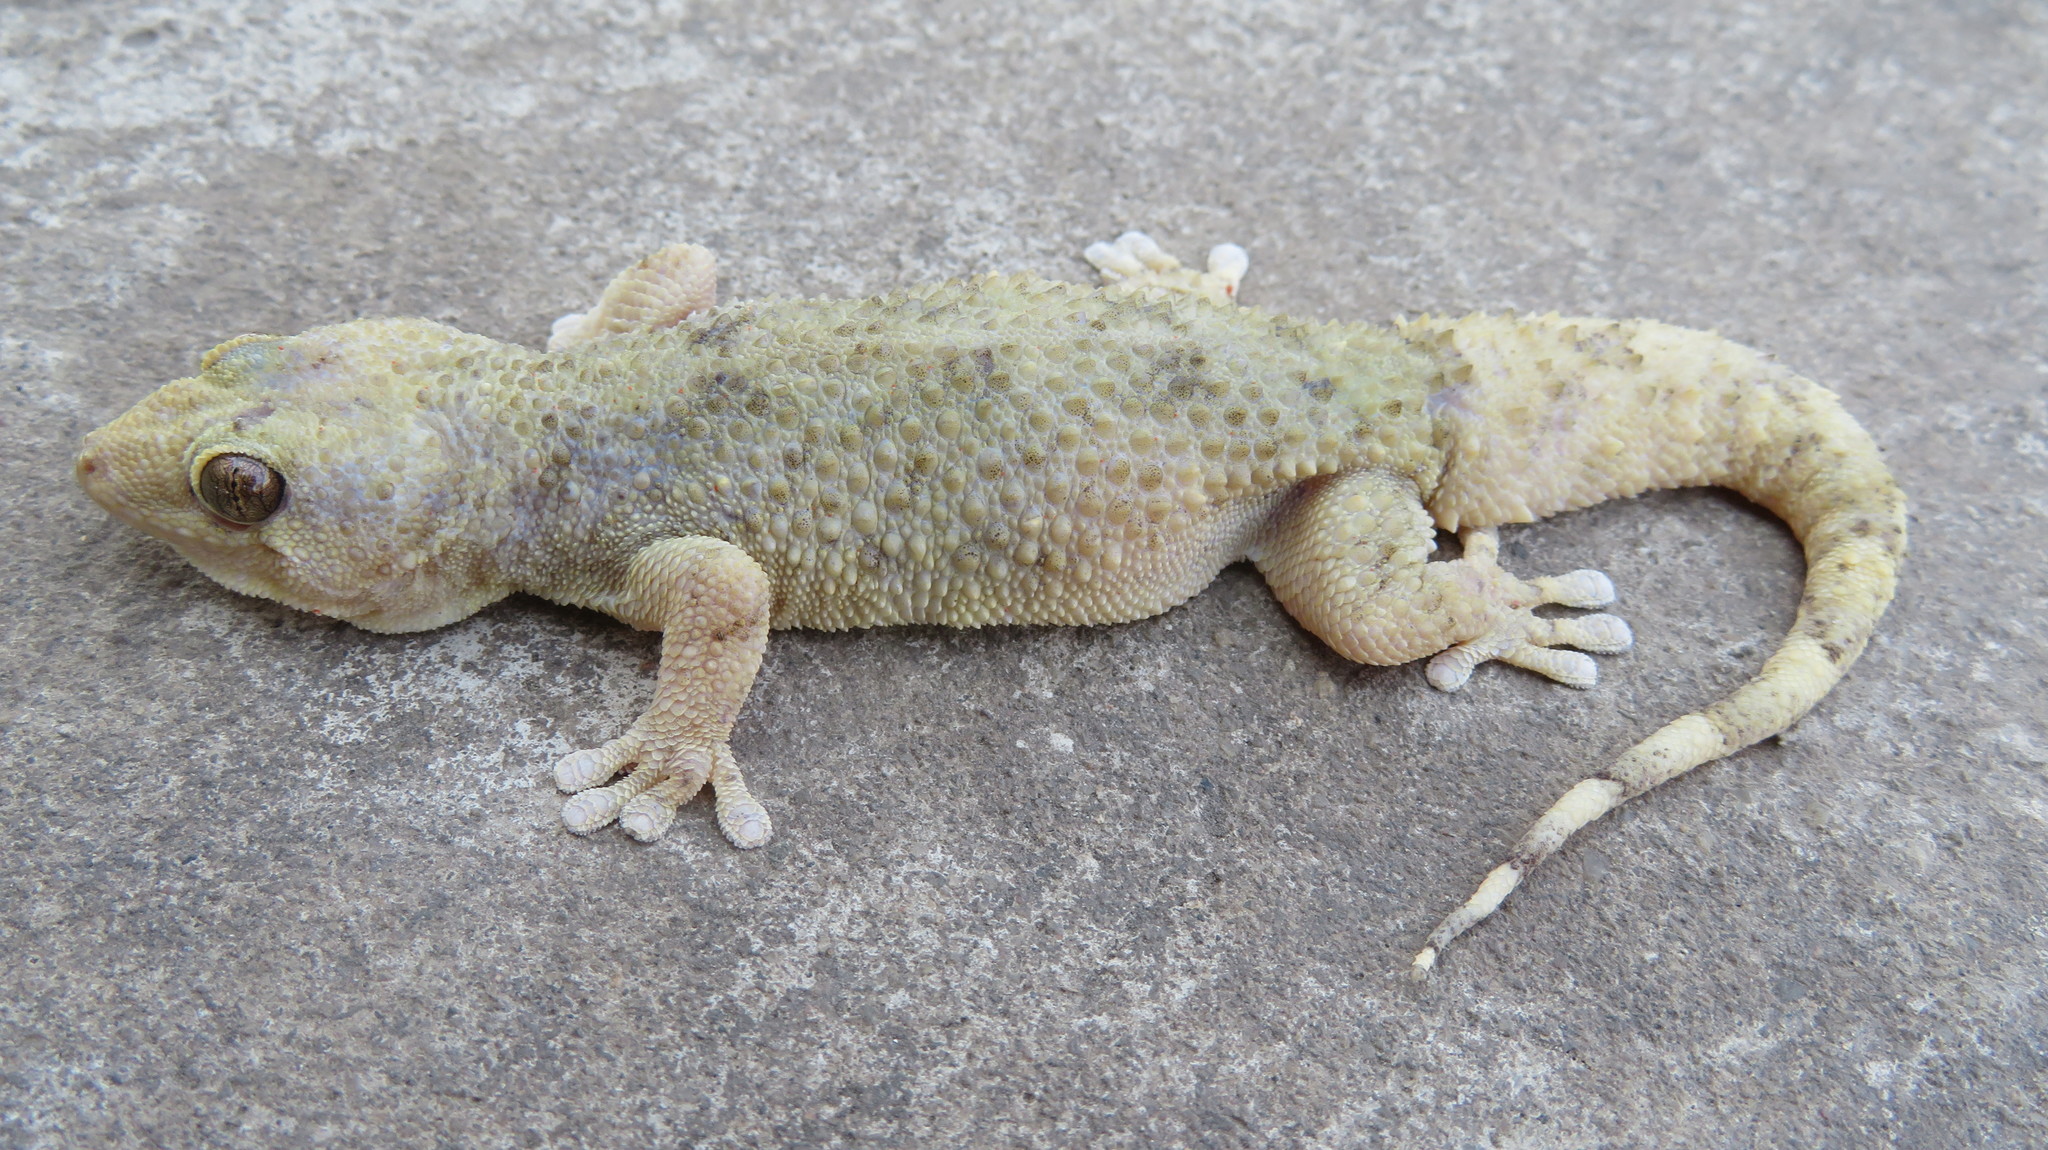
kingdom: Animalia
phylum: Chordata
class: Squamata
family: Gekkonidae
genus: Elasmodactylus
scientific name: Elasmodactylus tuberculosus
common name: Warty thick-toed gecko
